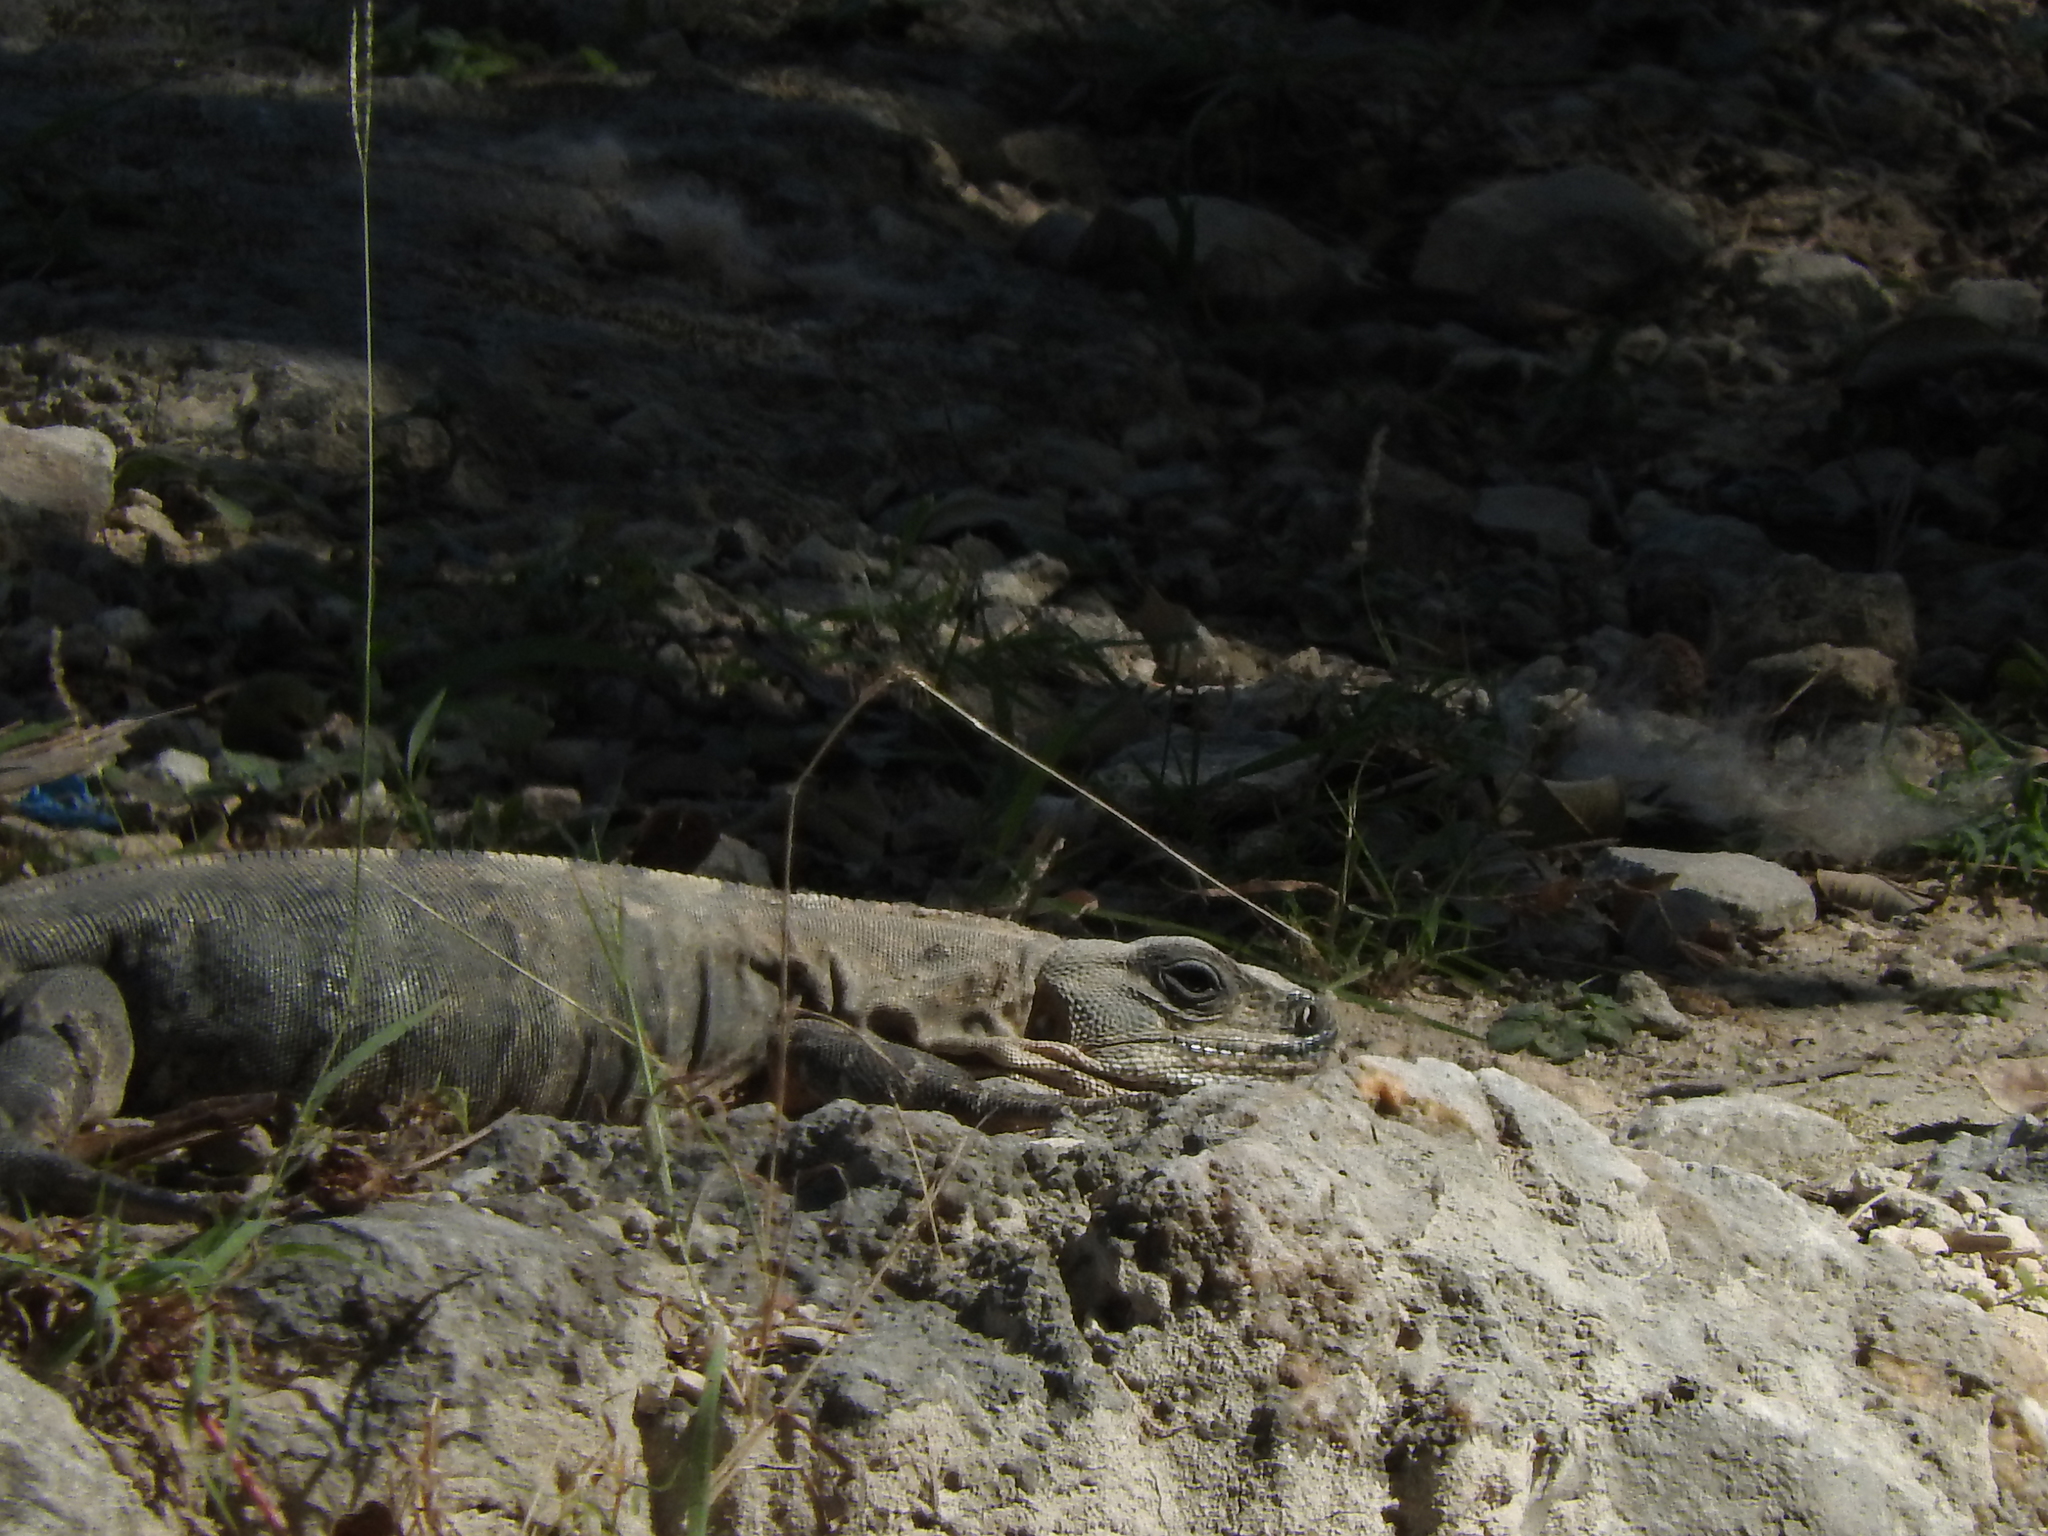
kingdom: Animalia
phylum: Chordata
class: Squamata
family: Iguanidae
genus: Ctenosaura
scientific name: Ctenosaura similis
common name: Black spiny-tailed iguana
